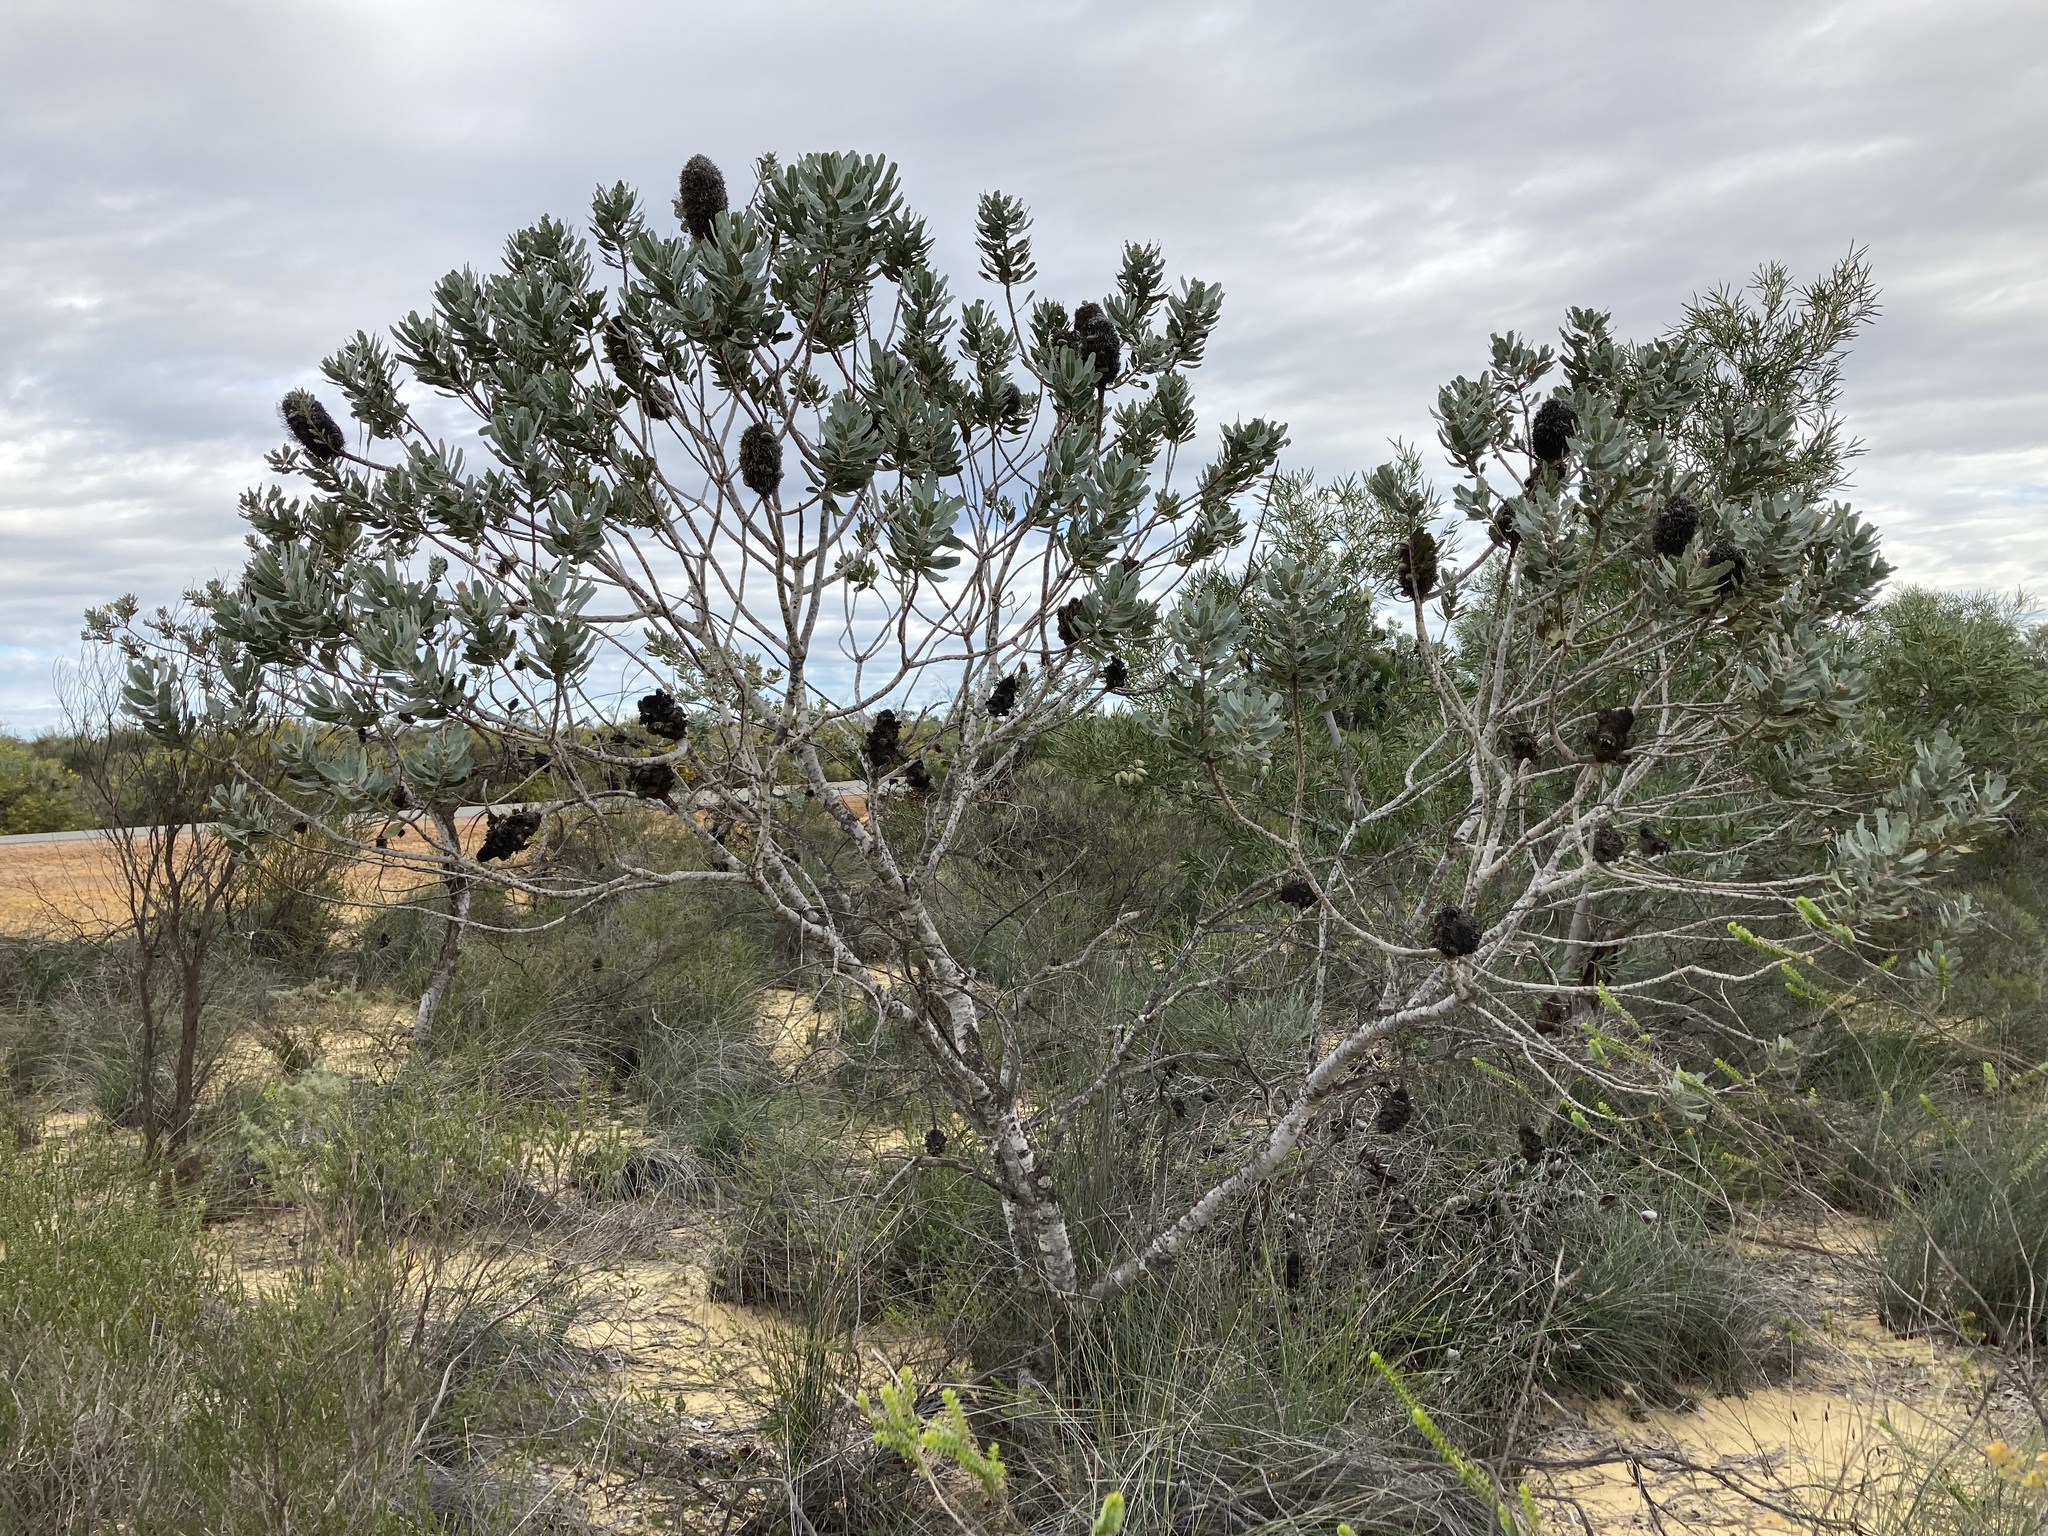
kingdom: Plantae
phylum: Tracheophyta
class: Magnoliopsida
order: Proteales
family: Proteaceae
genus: Banksia
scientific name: Banksia sceptrum
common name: Sceptre banksia
